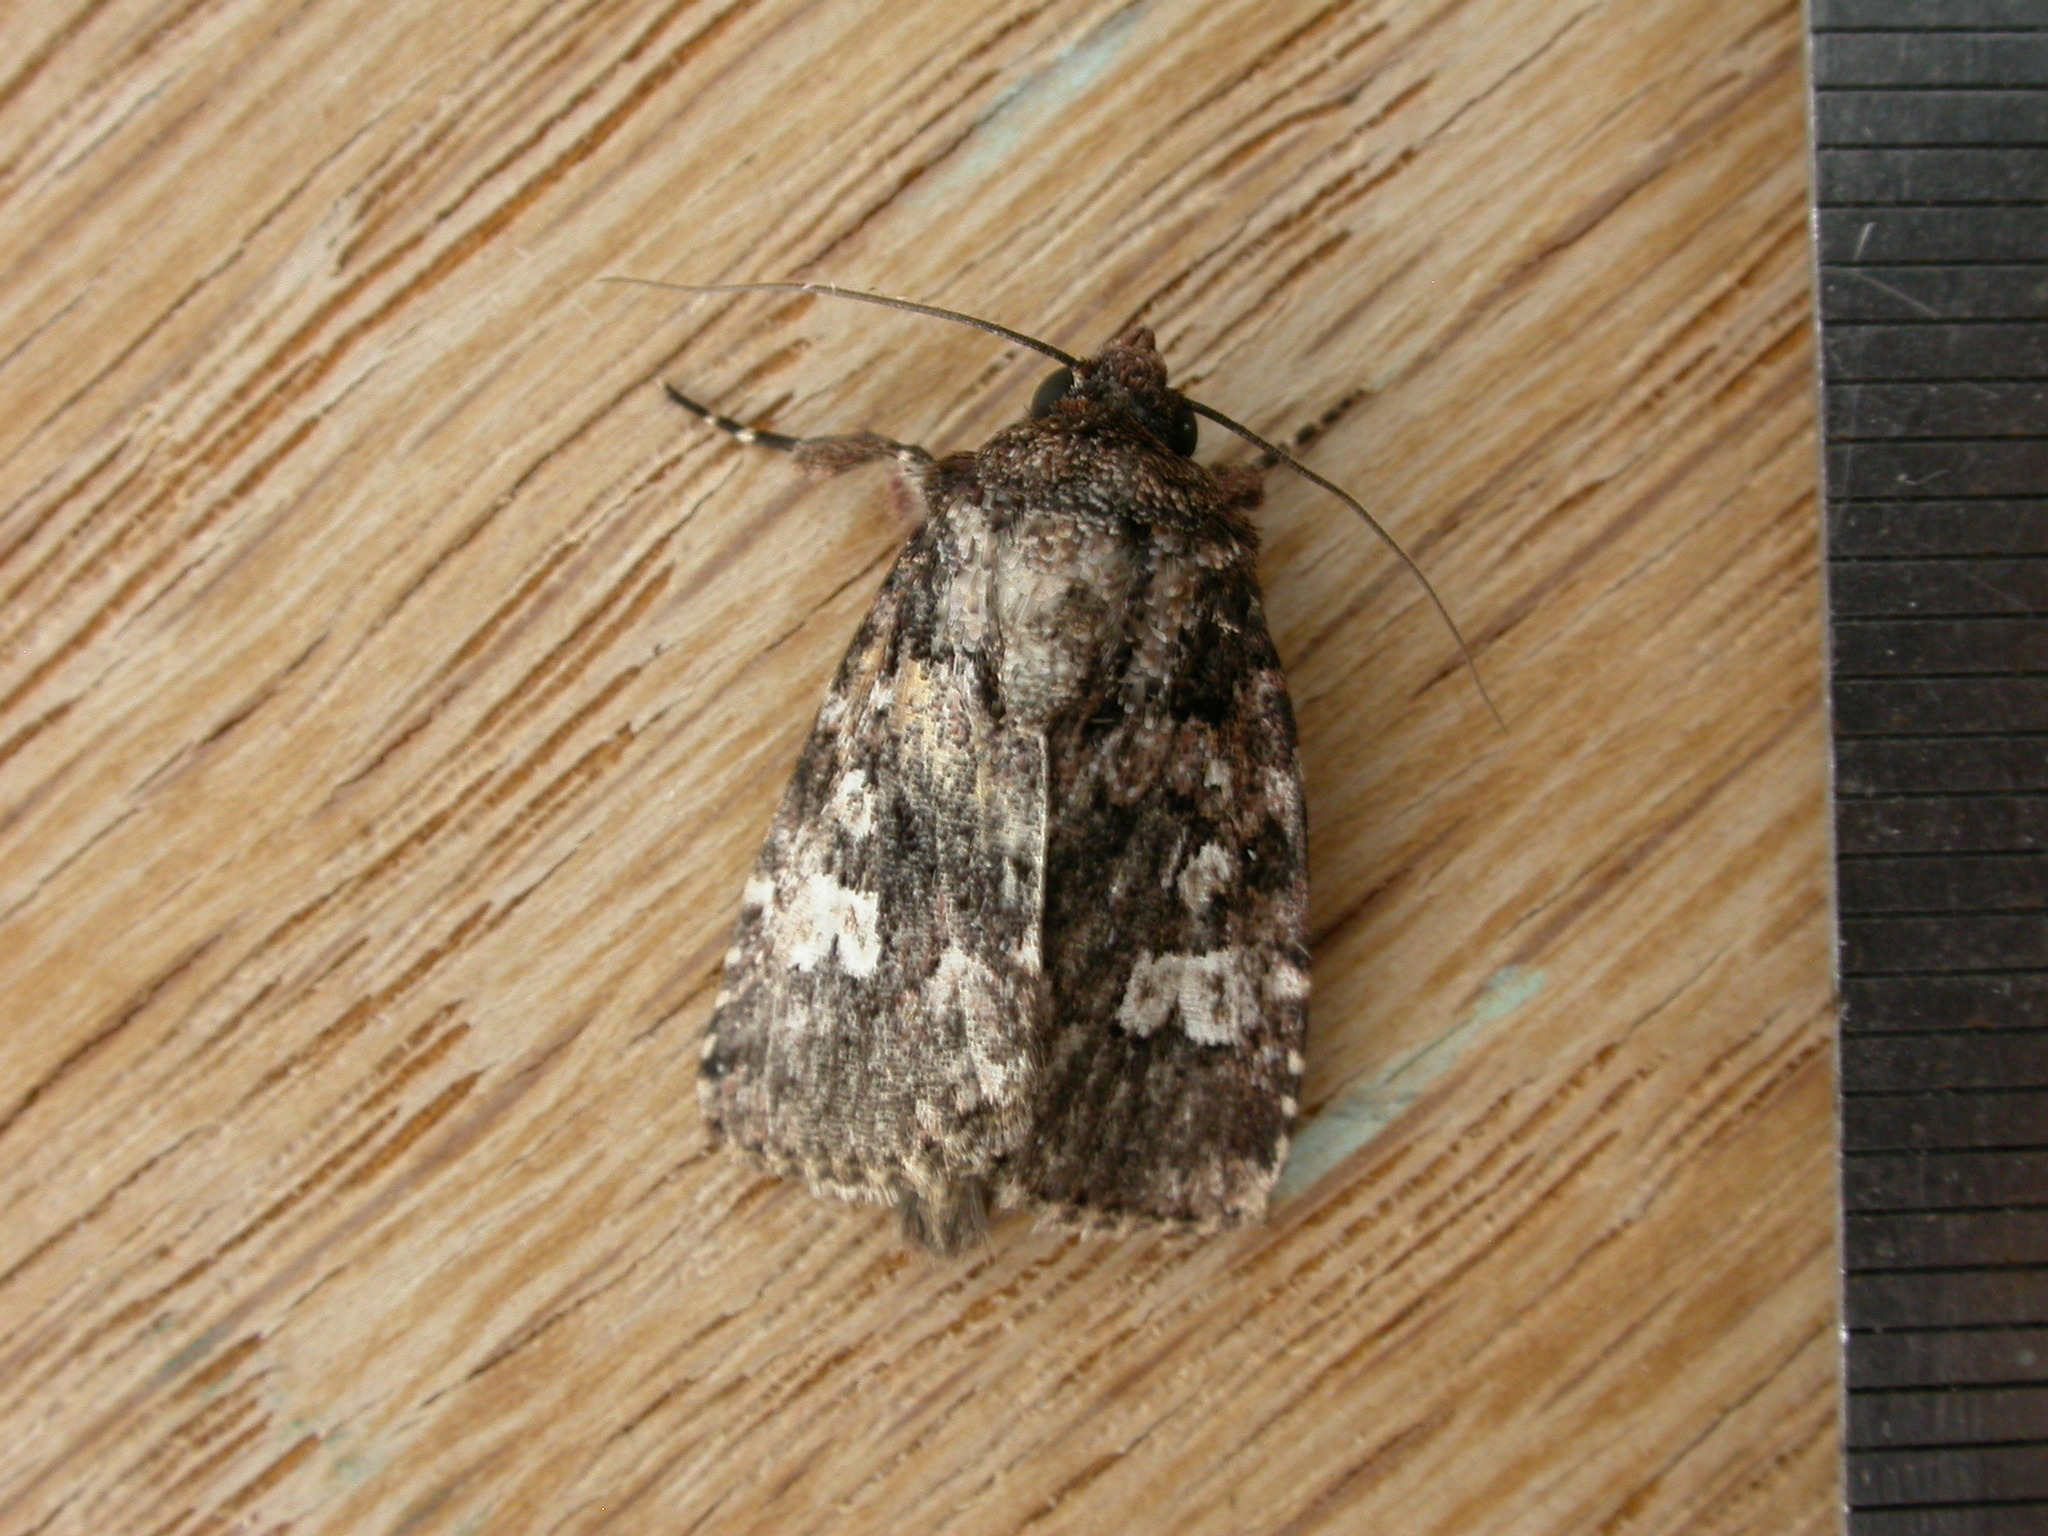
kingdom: Animalia
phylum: Arthropoda
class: Insecta
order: Lepidoptera
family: Noctuidae
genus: Ectopatria
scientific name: Ectopatria horologa
